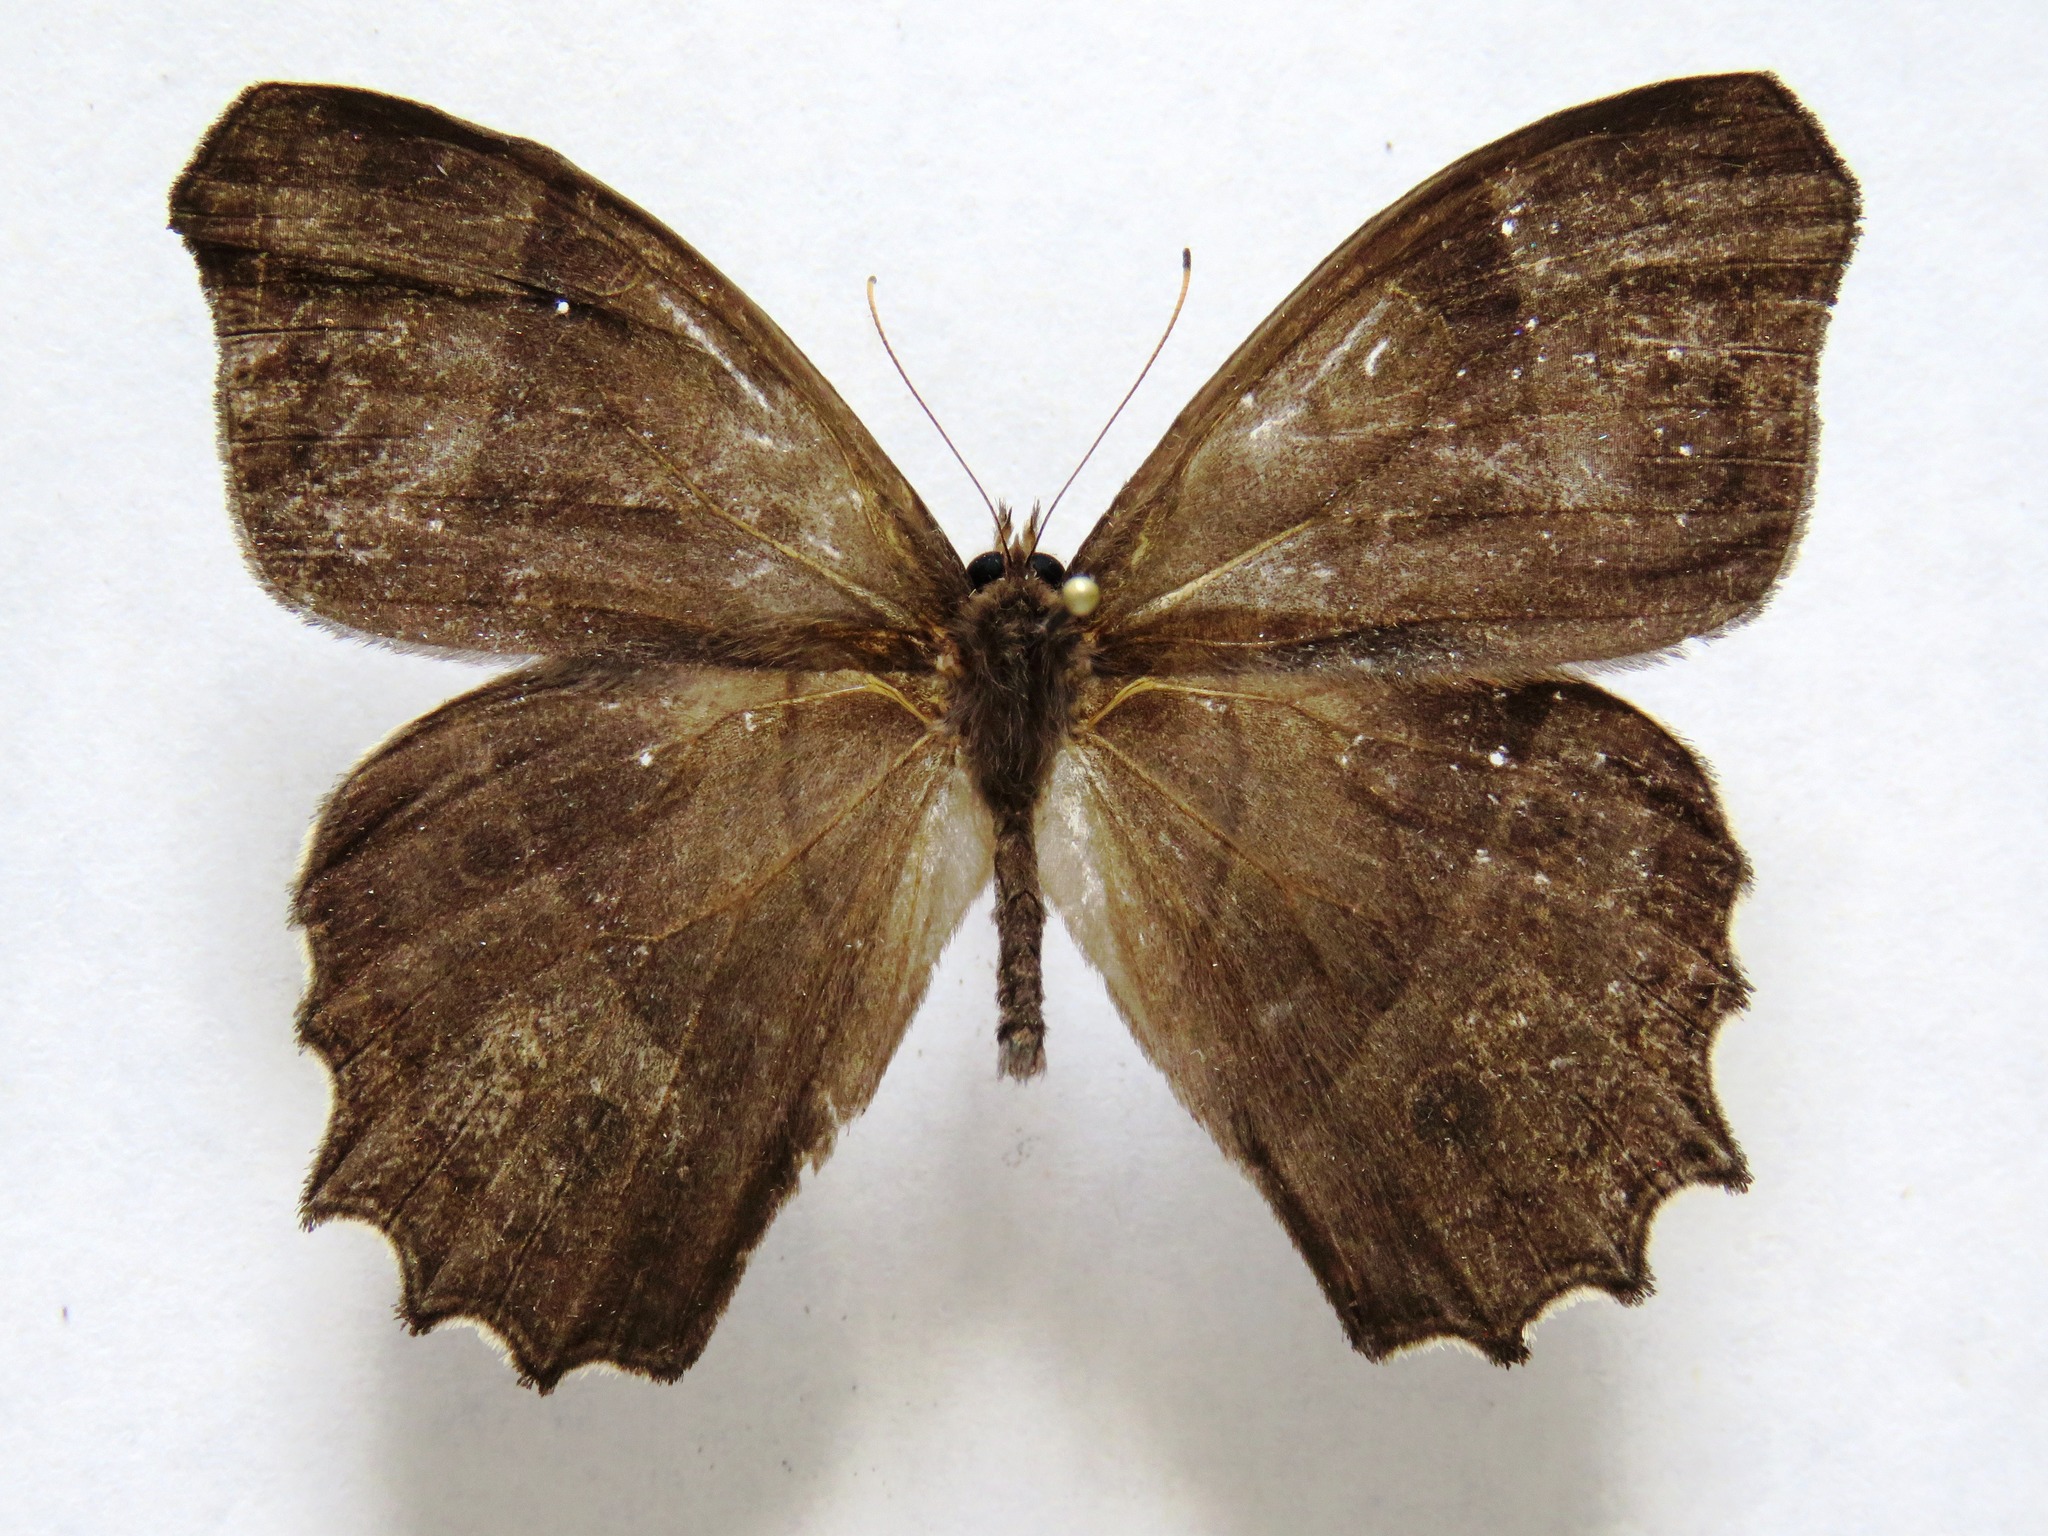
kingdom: Animalia
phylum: Arthropoda
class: Insecta
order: Lepidoptera
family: Nymphalidae
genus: Taygetis
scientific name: Taygetis andromeda
